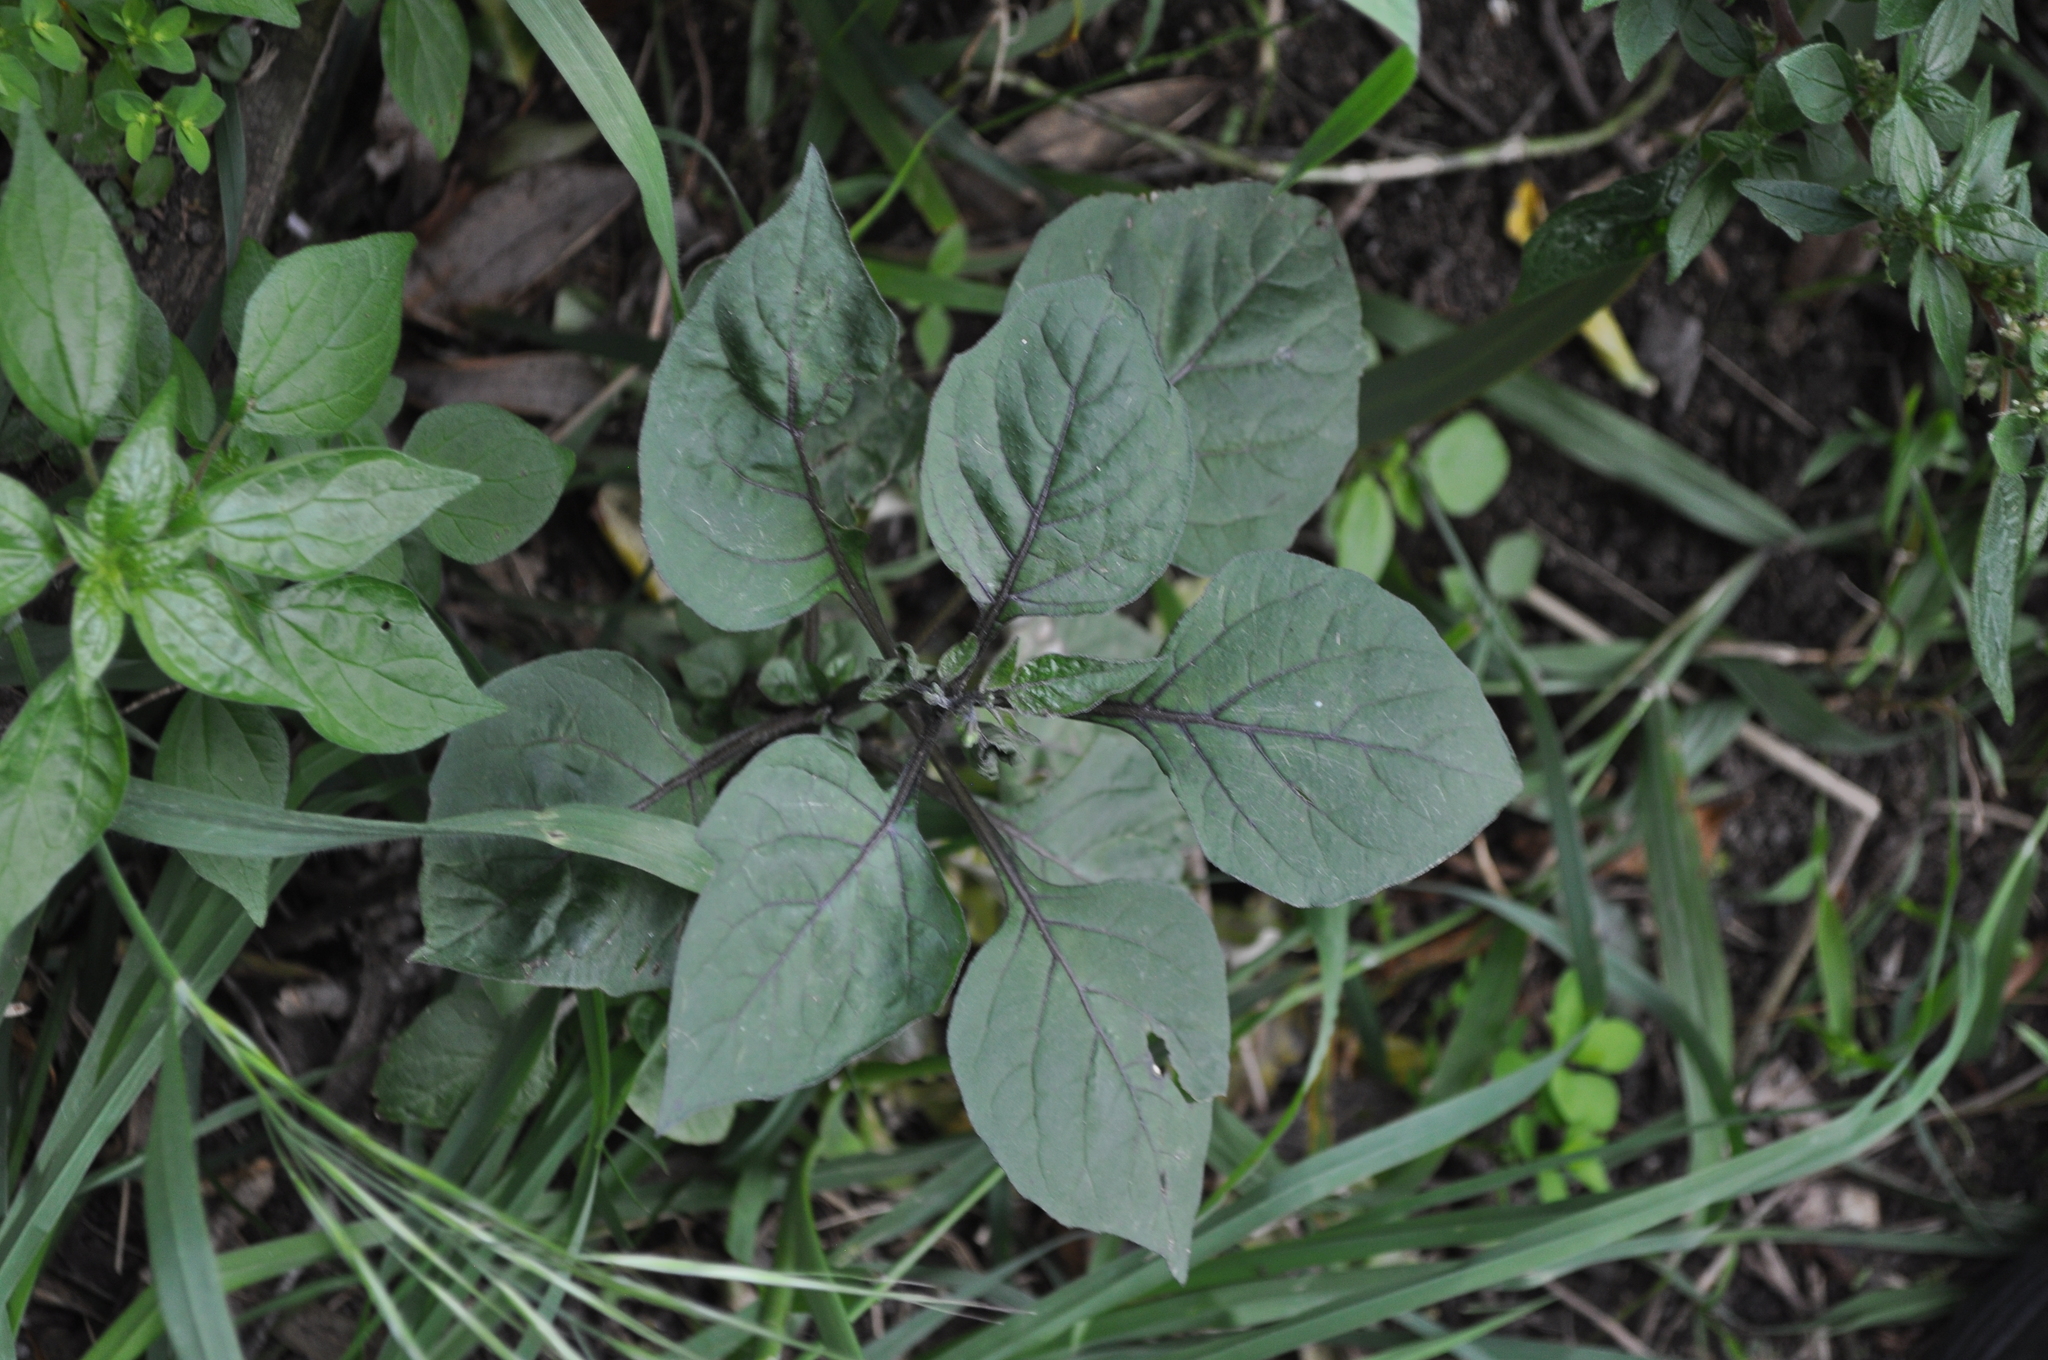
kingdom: Plantae
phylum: Tracheophyta
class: Magnoliopsida
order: Solanales
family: Solanaceae
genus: Solanum
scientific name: Solanum
